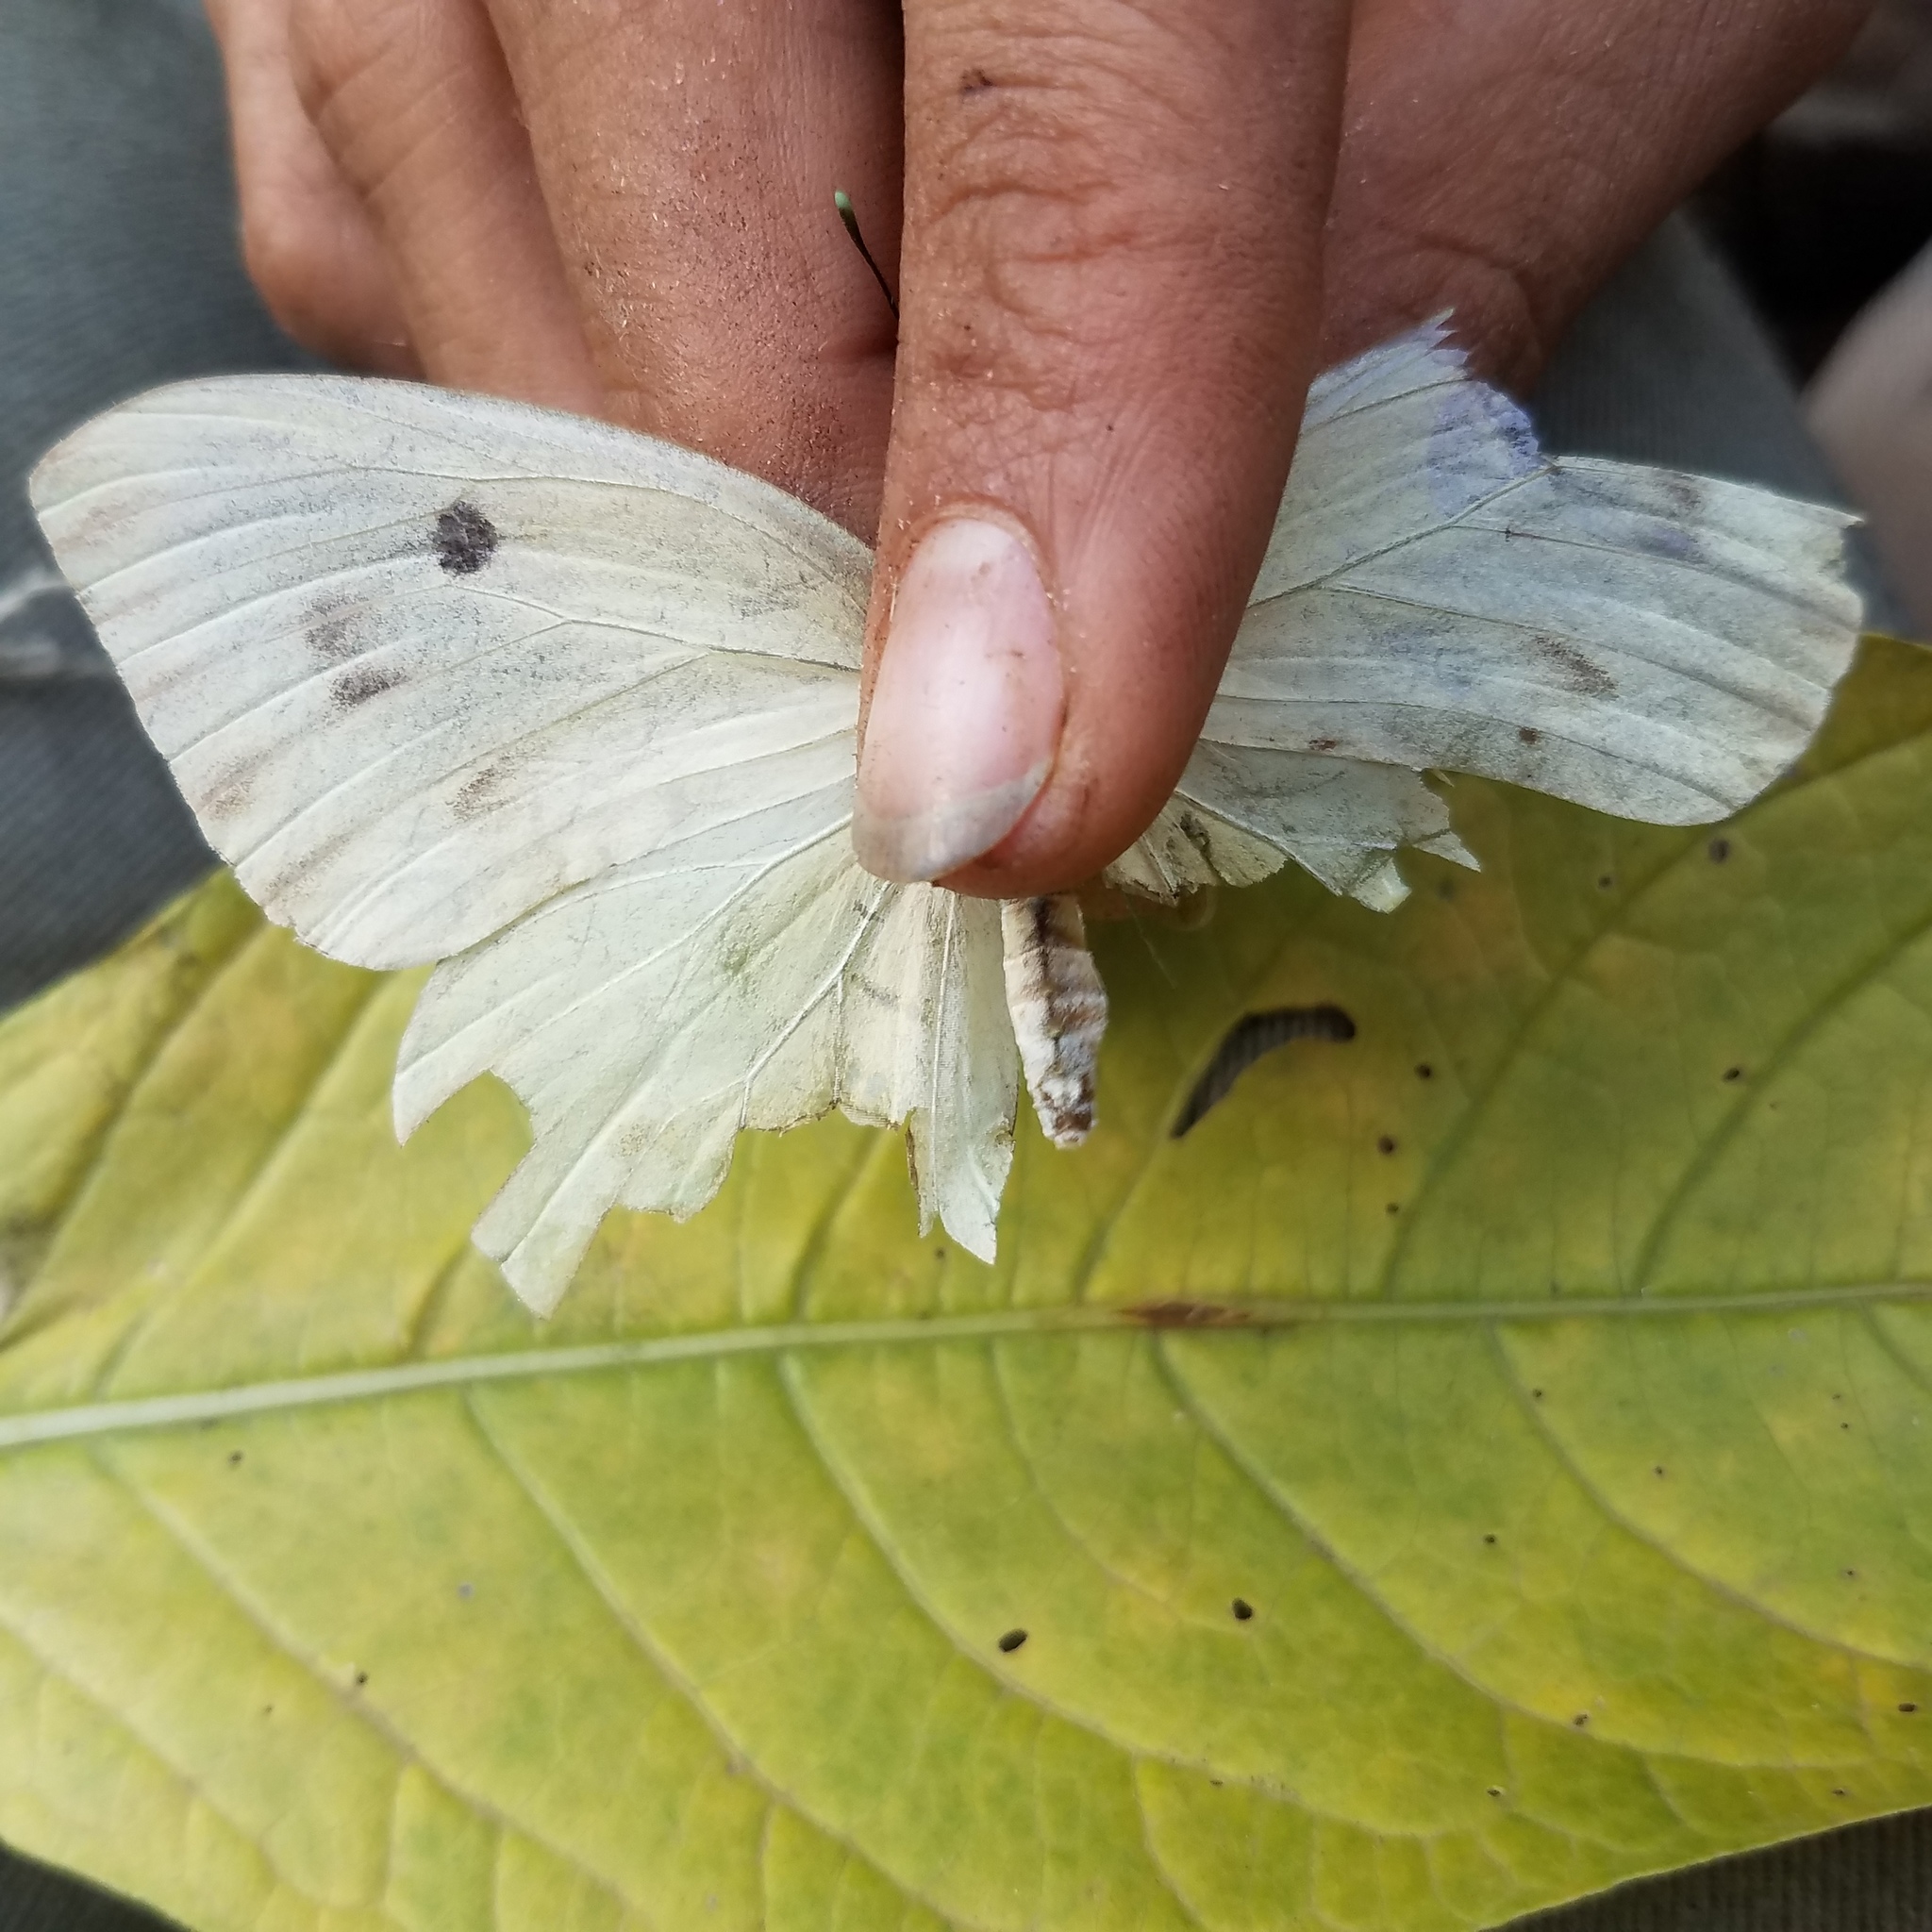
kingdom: Animalia
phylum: Arthropoda
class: Insecta
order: Lepidoptera
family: Pieridae
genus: Ganyra
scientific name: Ganyra josephina
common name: Giant white
